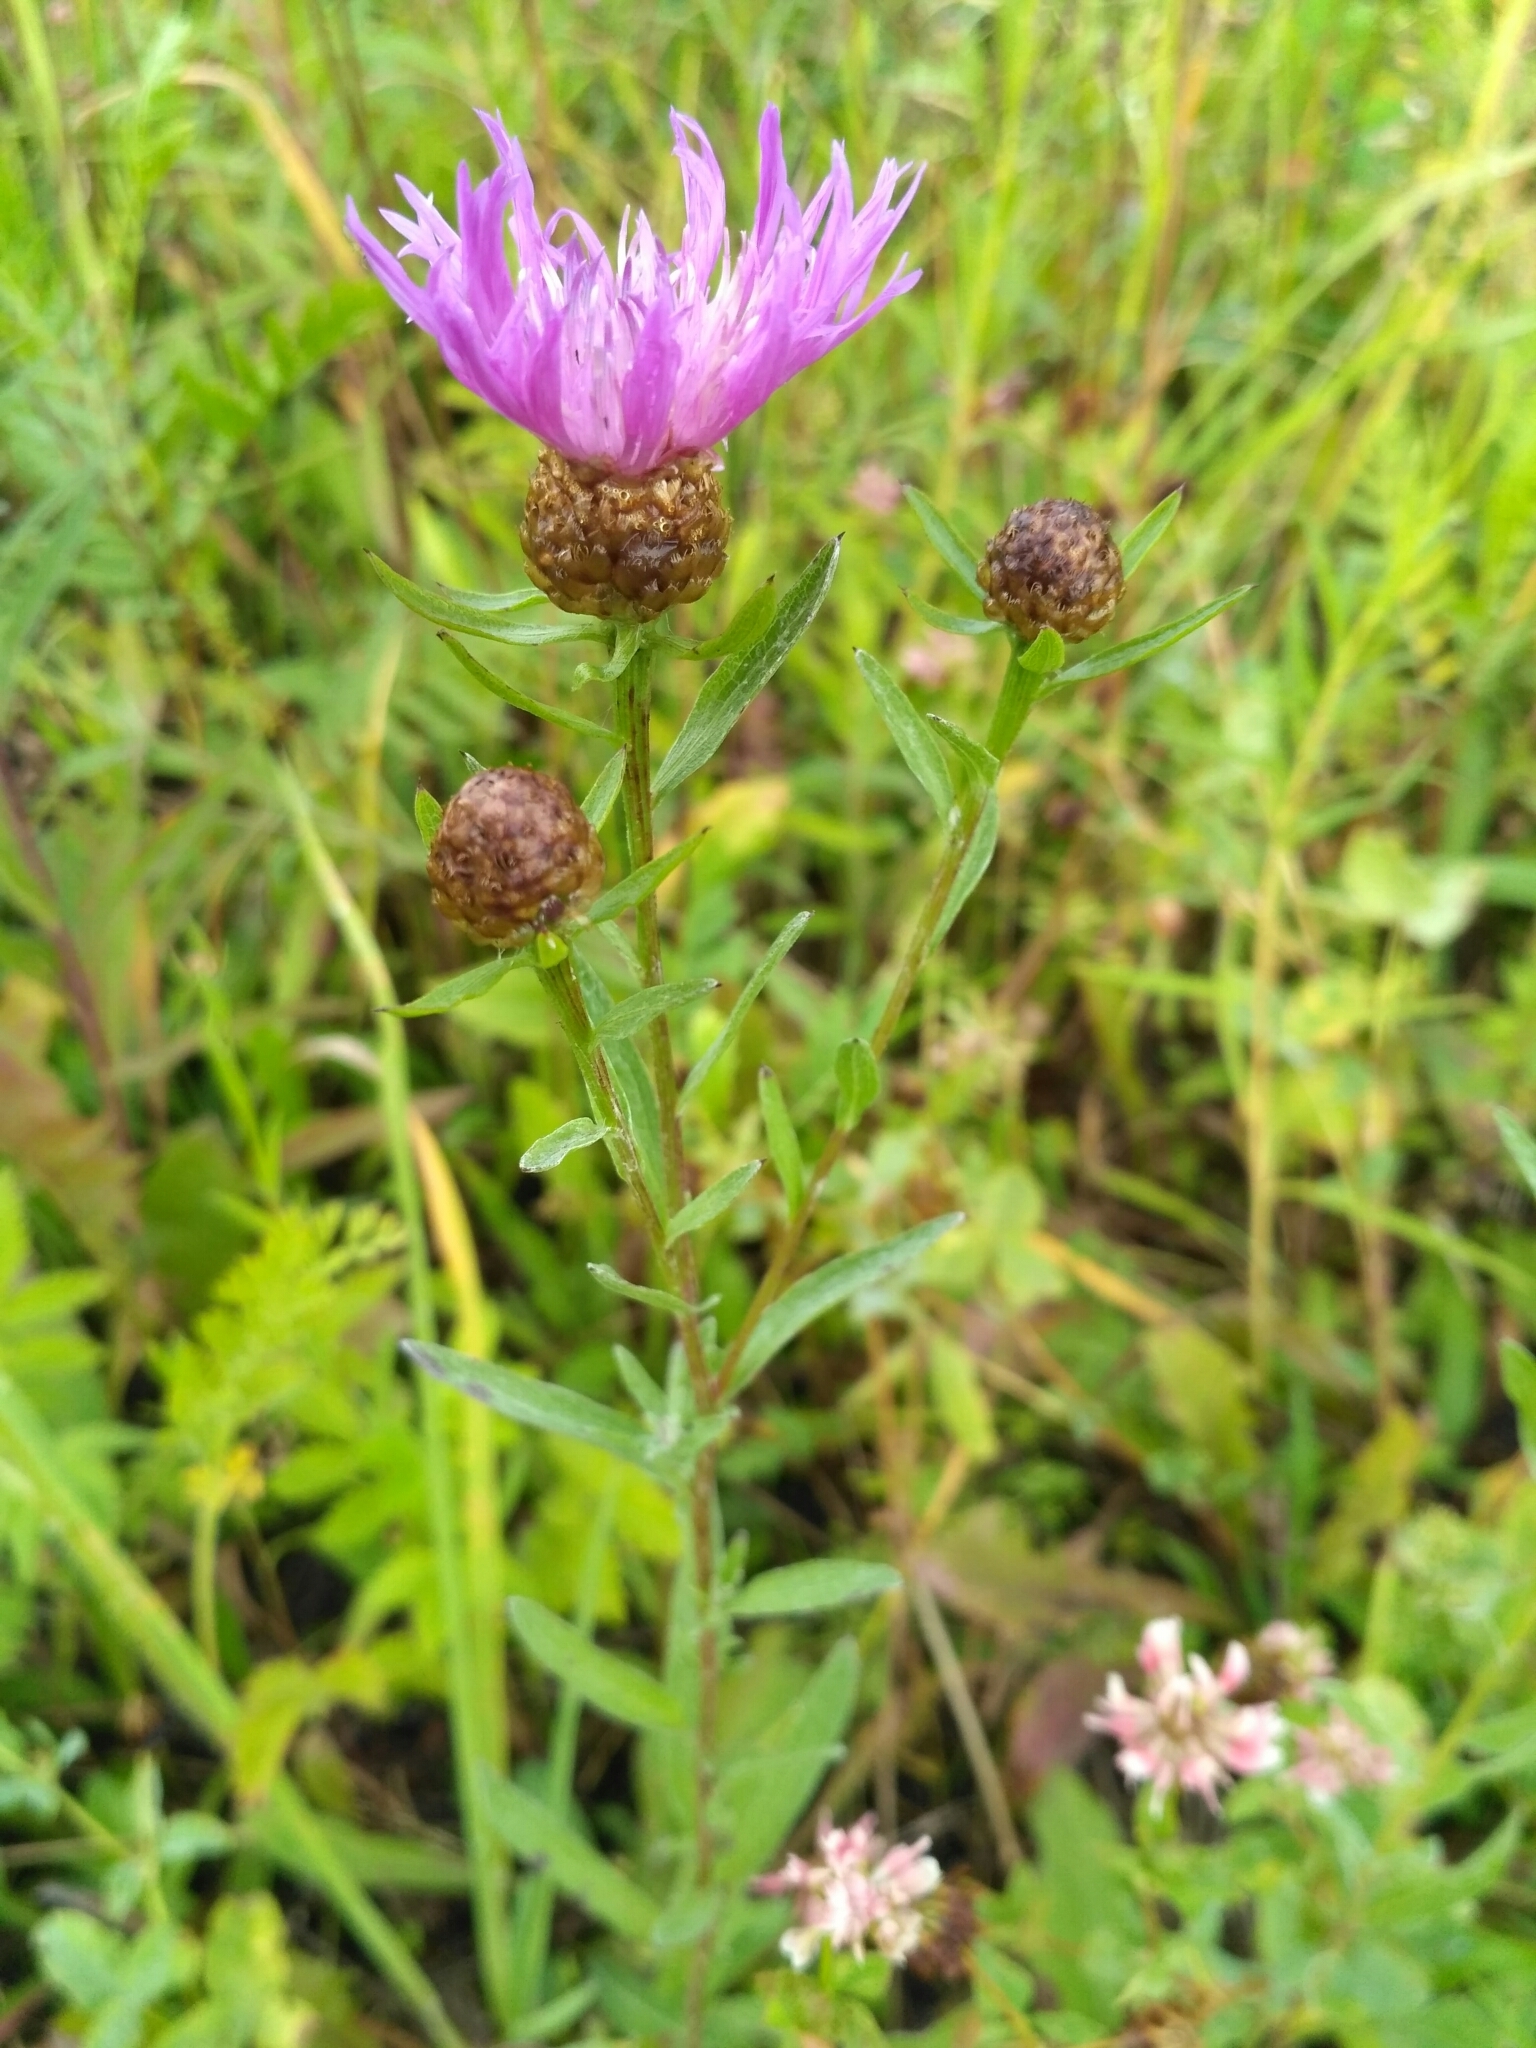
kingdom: Plantae
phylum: Tracheophyta
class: Magnoliopsida
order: Asterales
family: Asteraceae
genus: Centaurea
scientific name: Centaurea jacea
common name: Brown knapweed
